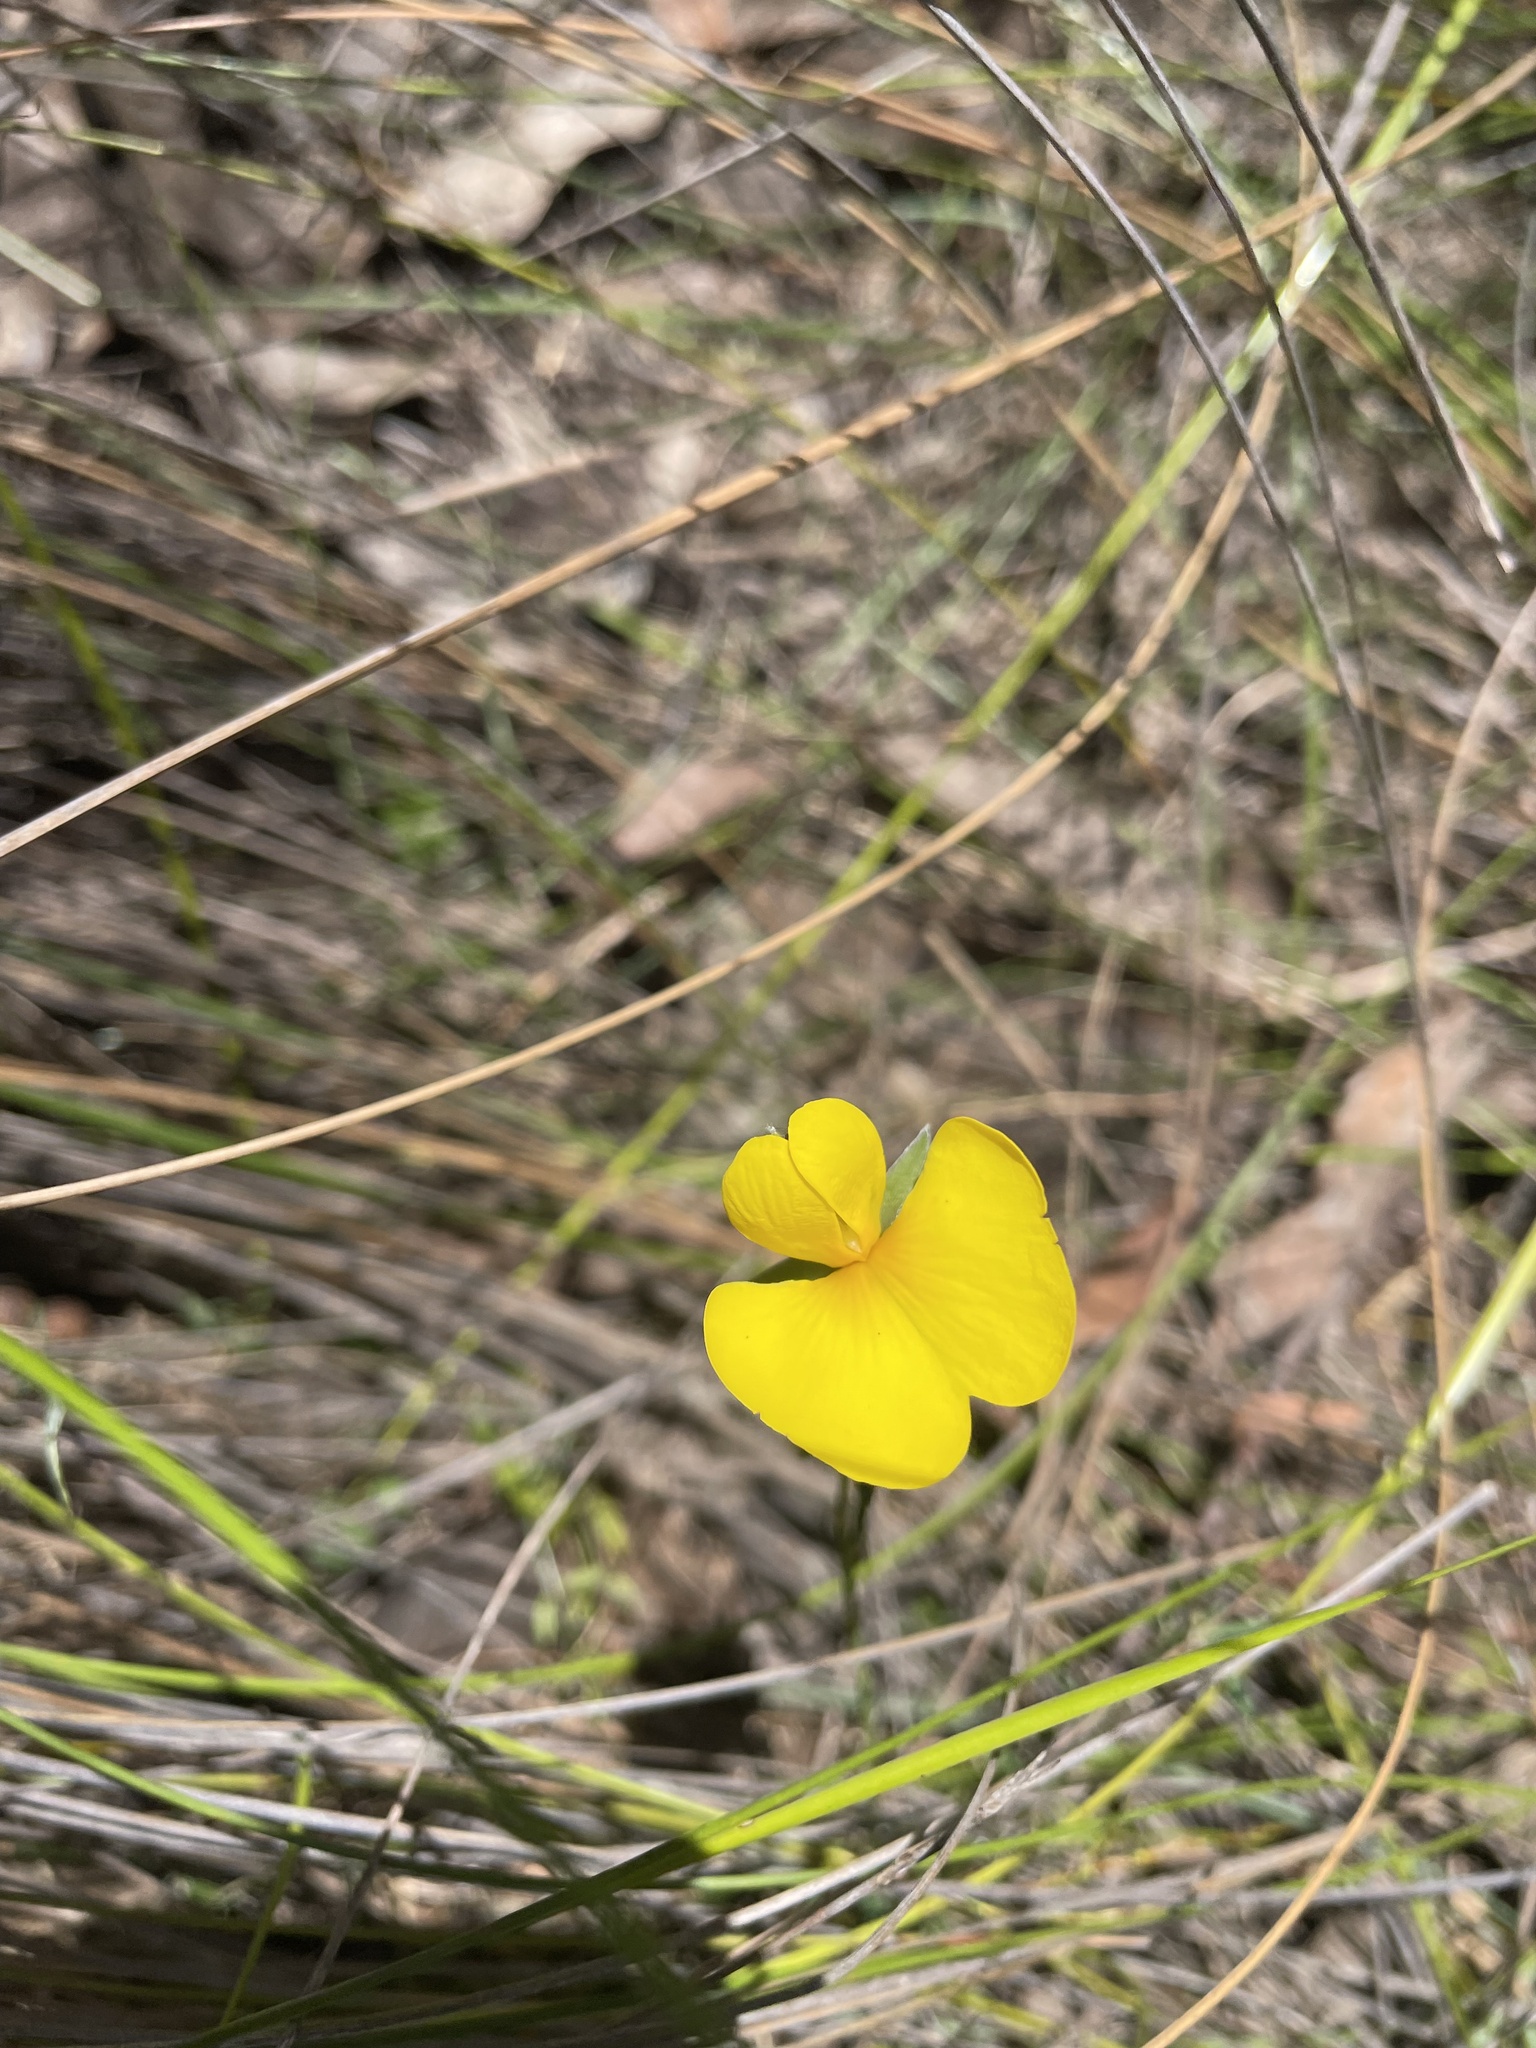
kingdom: Plantae
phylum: Tracheophyta
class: Magnoliopsida
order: Fabales
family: Fabaceae
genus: Gompholobium
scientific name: Gompholobium huegelii
